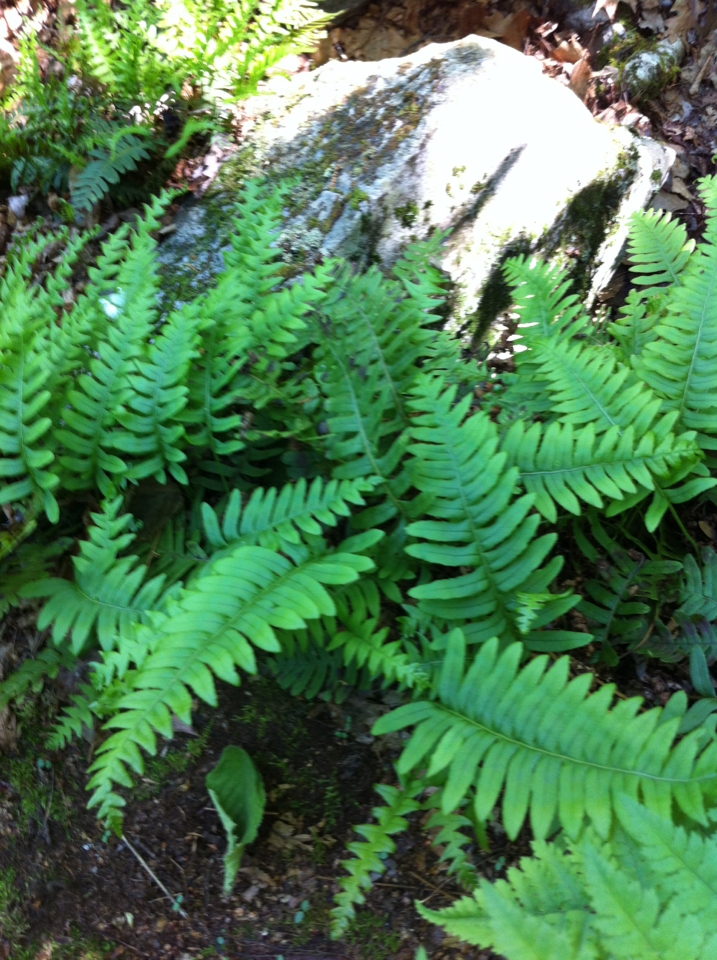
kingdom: Plantae
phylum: Tracheophyta
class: Polypodiopsida
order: Polypodiales
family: Polypodiaceae
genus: Polypodium
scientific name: Polypodium virginianum
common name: American wall fern
